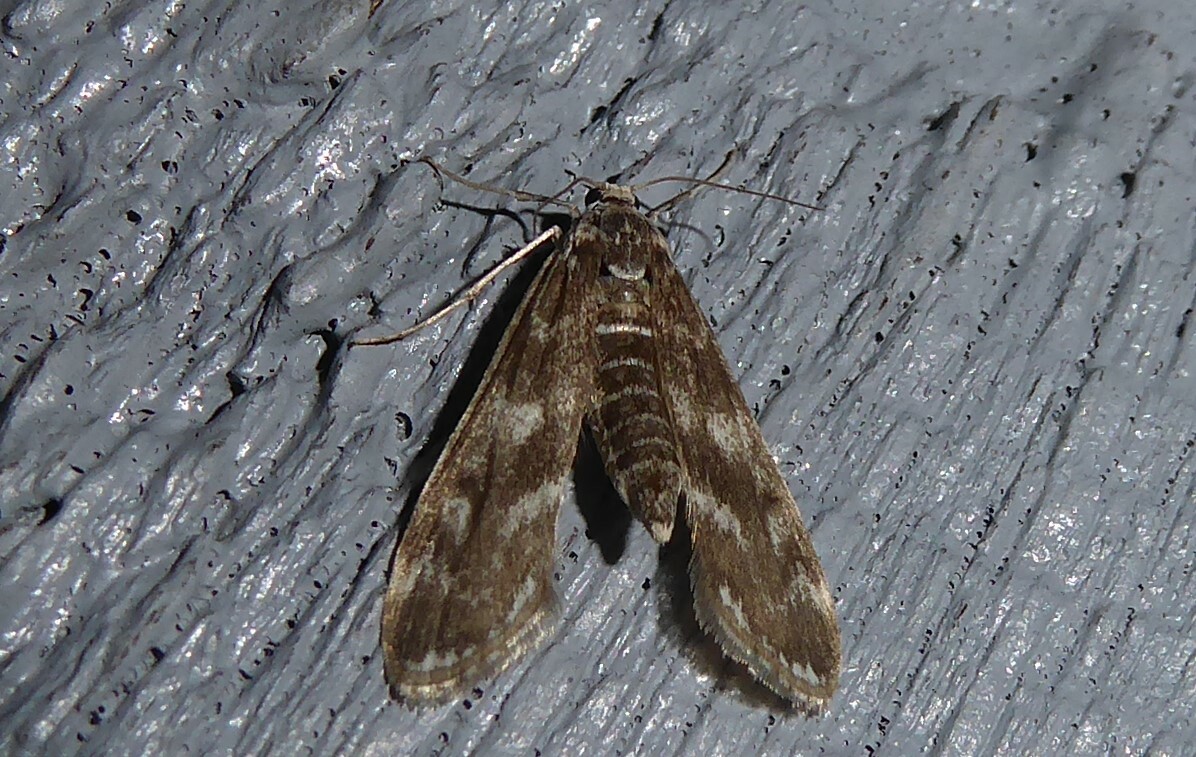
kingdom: Animalia
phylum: Arthropoda
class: Insecta
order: Lepidoptera
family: Crambidae
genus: Hygraula
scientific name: Hygraula nitens
